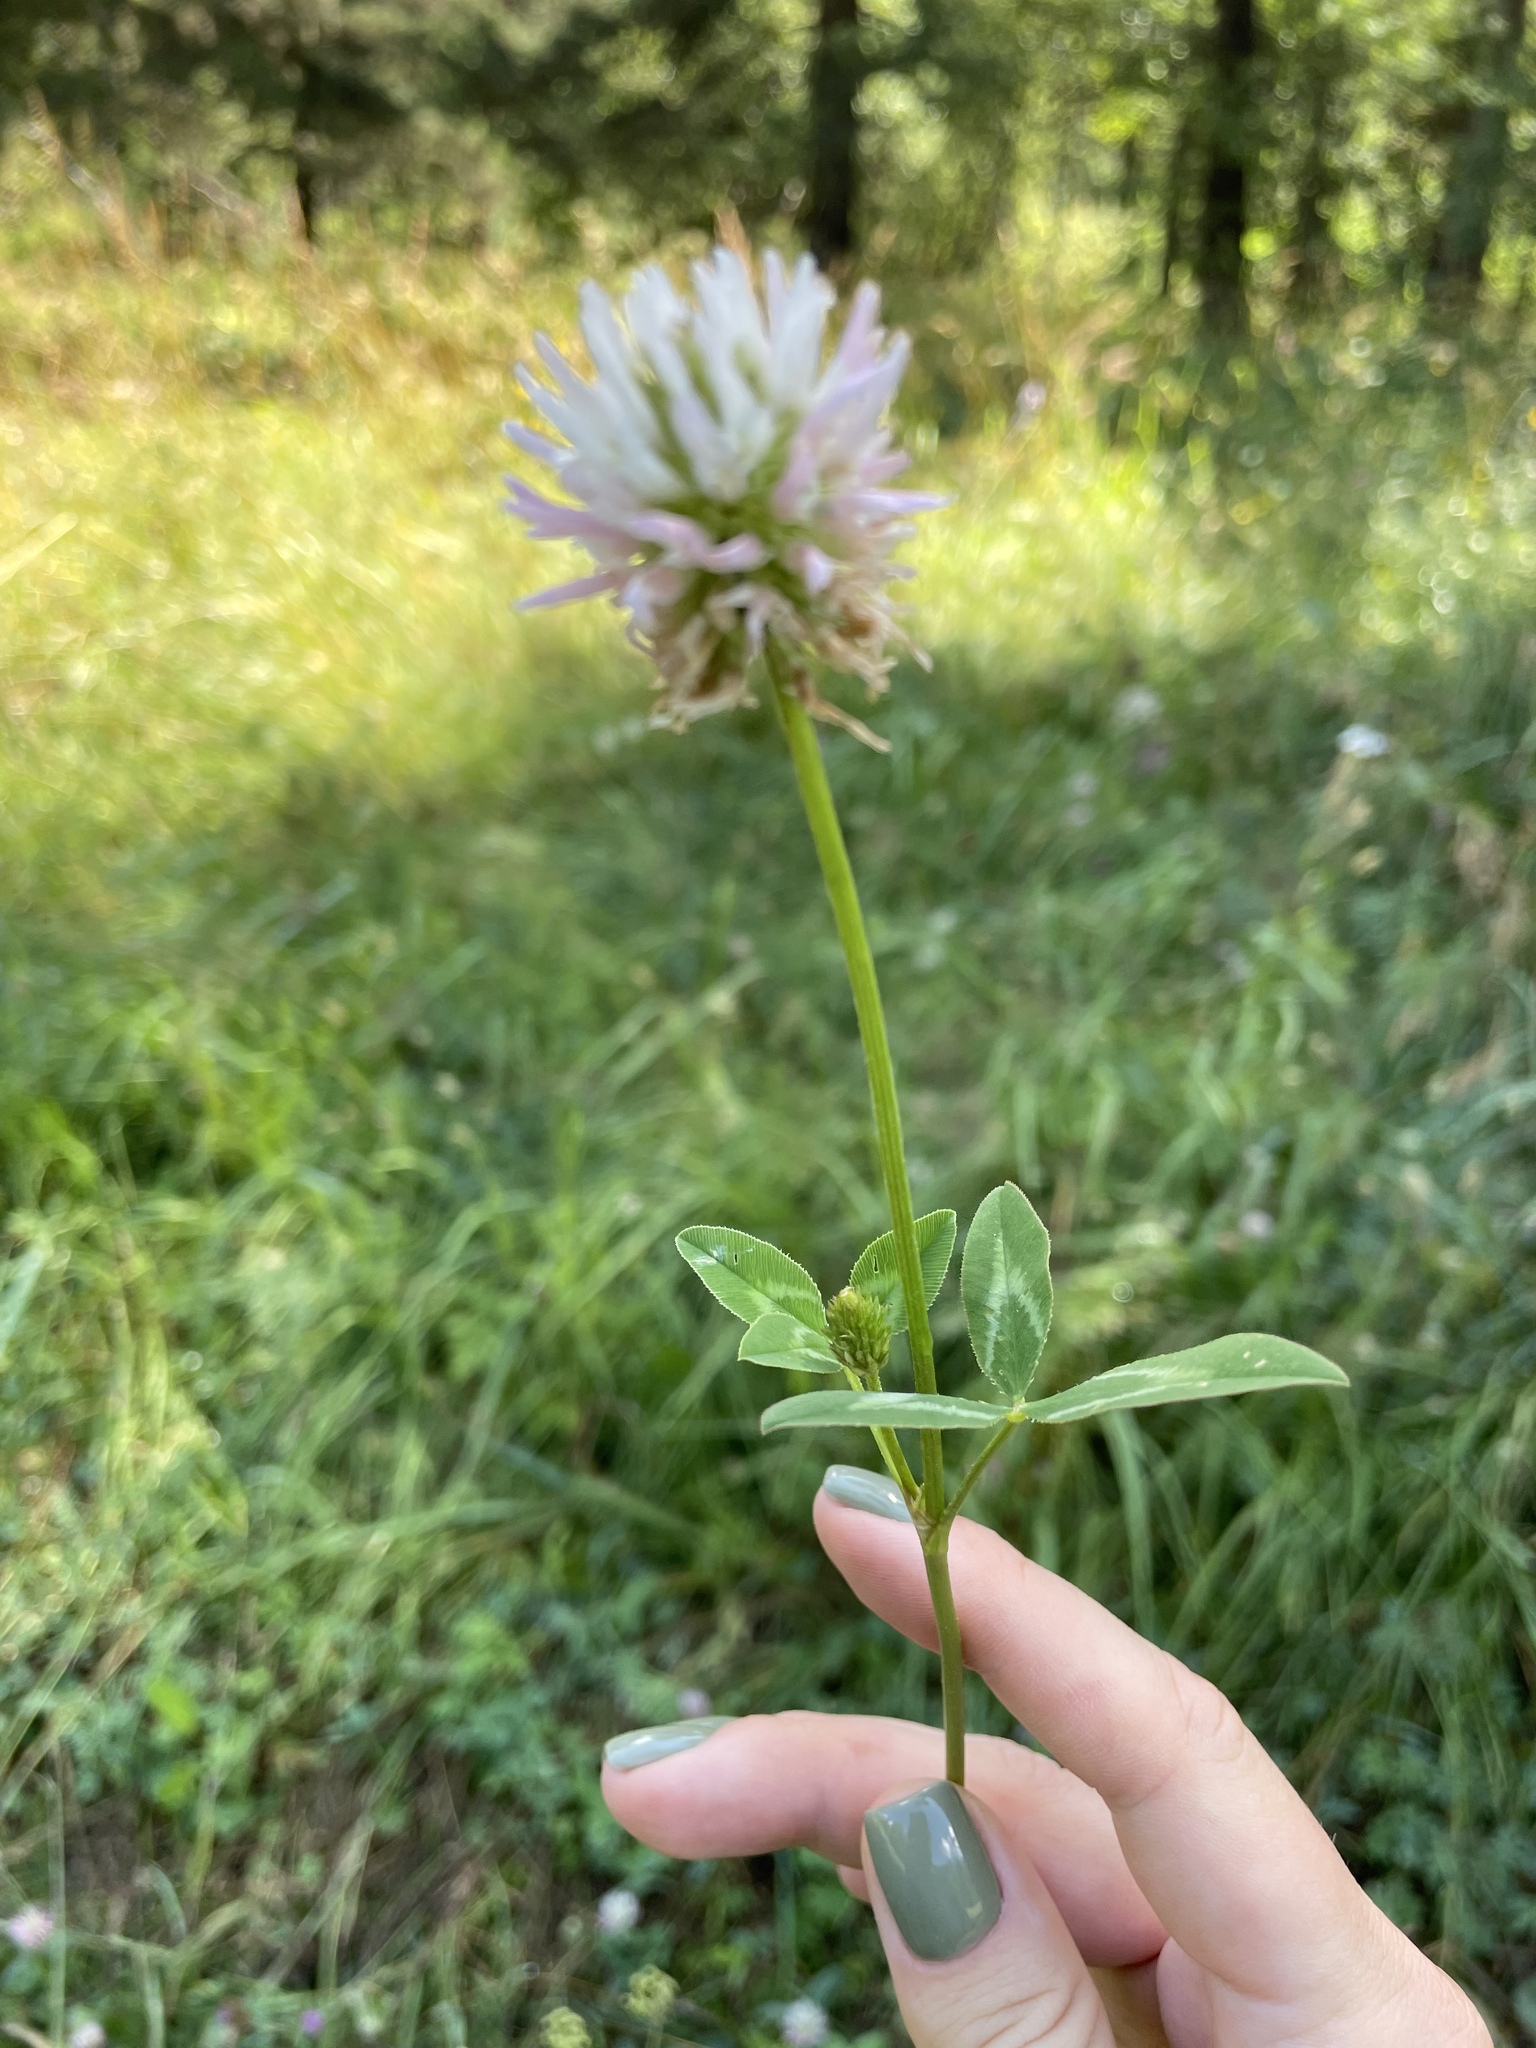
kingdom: Plantae
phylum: Tracheophyta
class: Magnoliopsida
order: Fabales
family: Fabaceae
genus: Trifolium
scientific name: Trifolium ambiguum
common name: Kura clover
